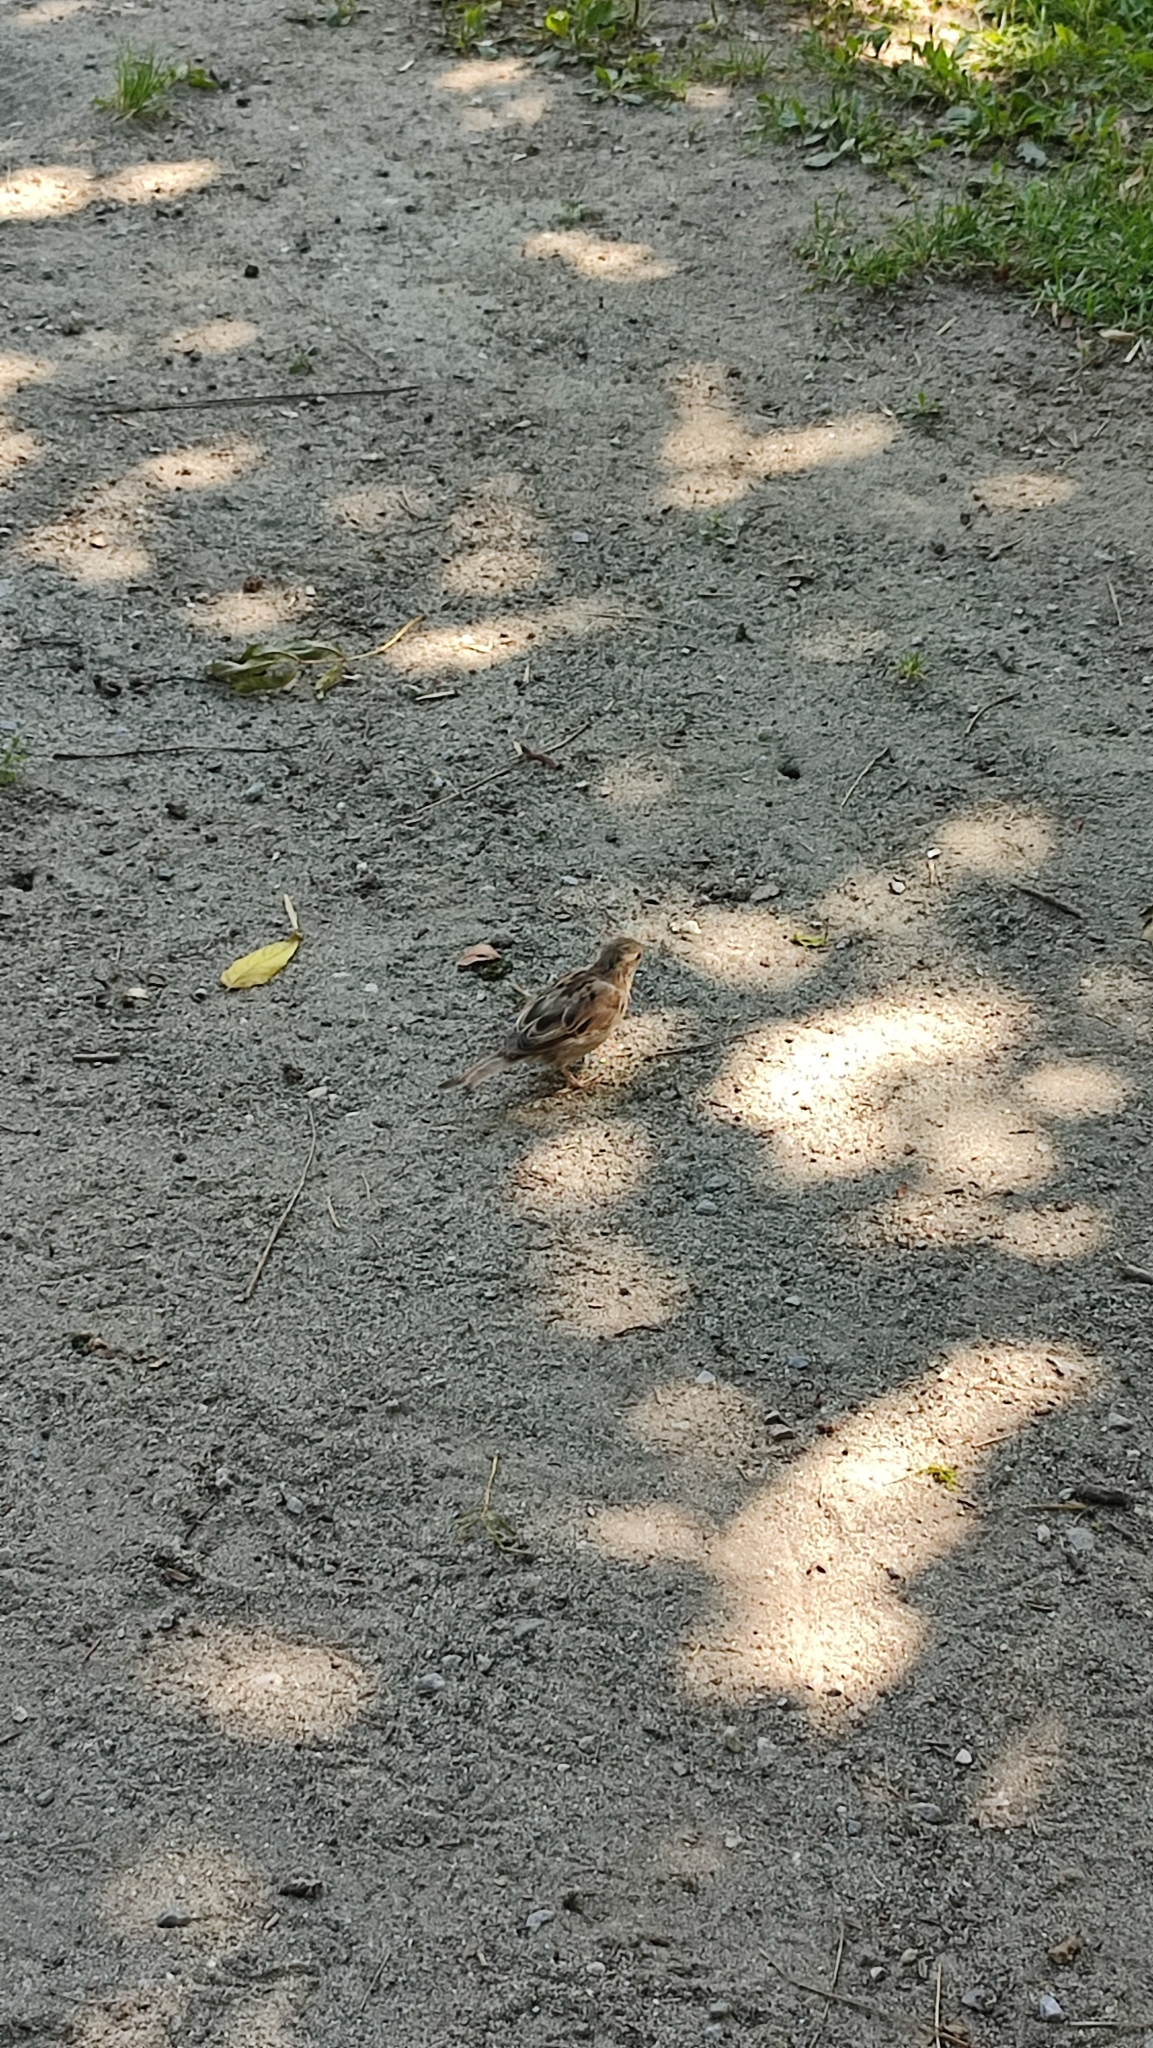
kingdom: Animalia
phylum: Chordata
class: Aves
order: Passeriformes
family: Passeridae
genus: Passer
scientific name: Passer domesticus
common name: House sparrow
